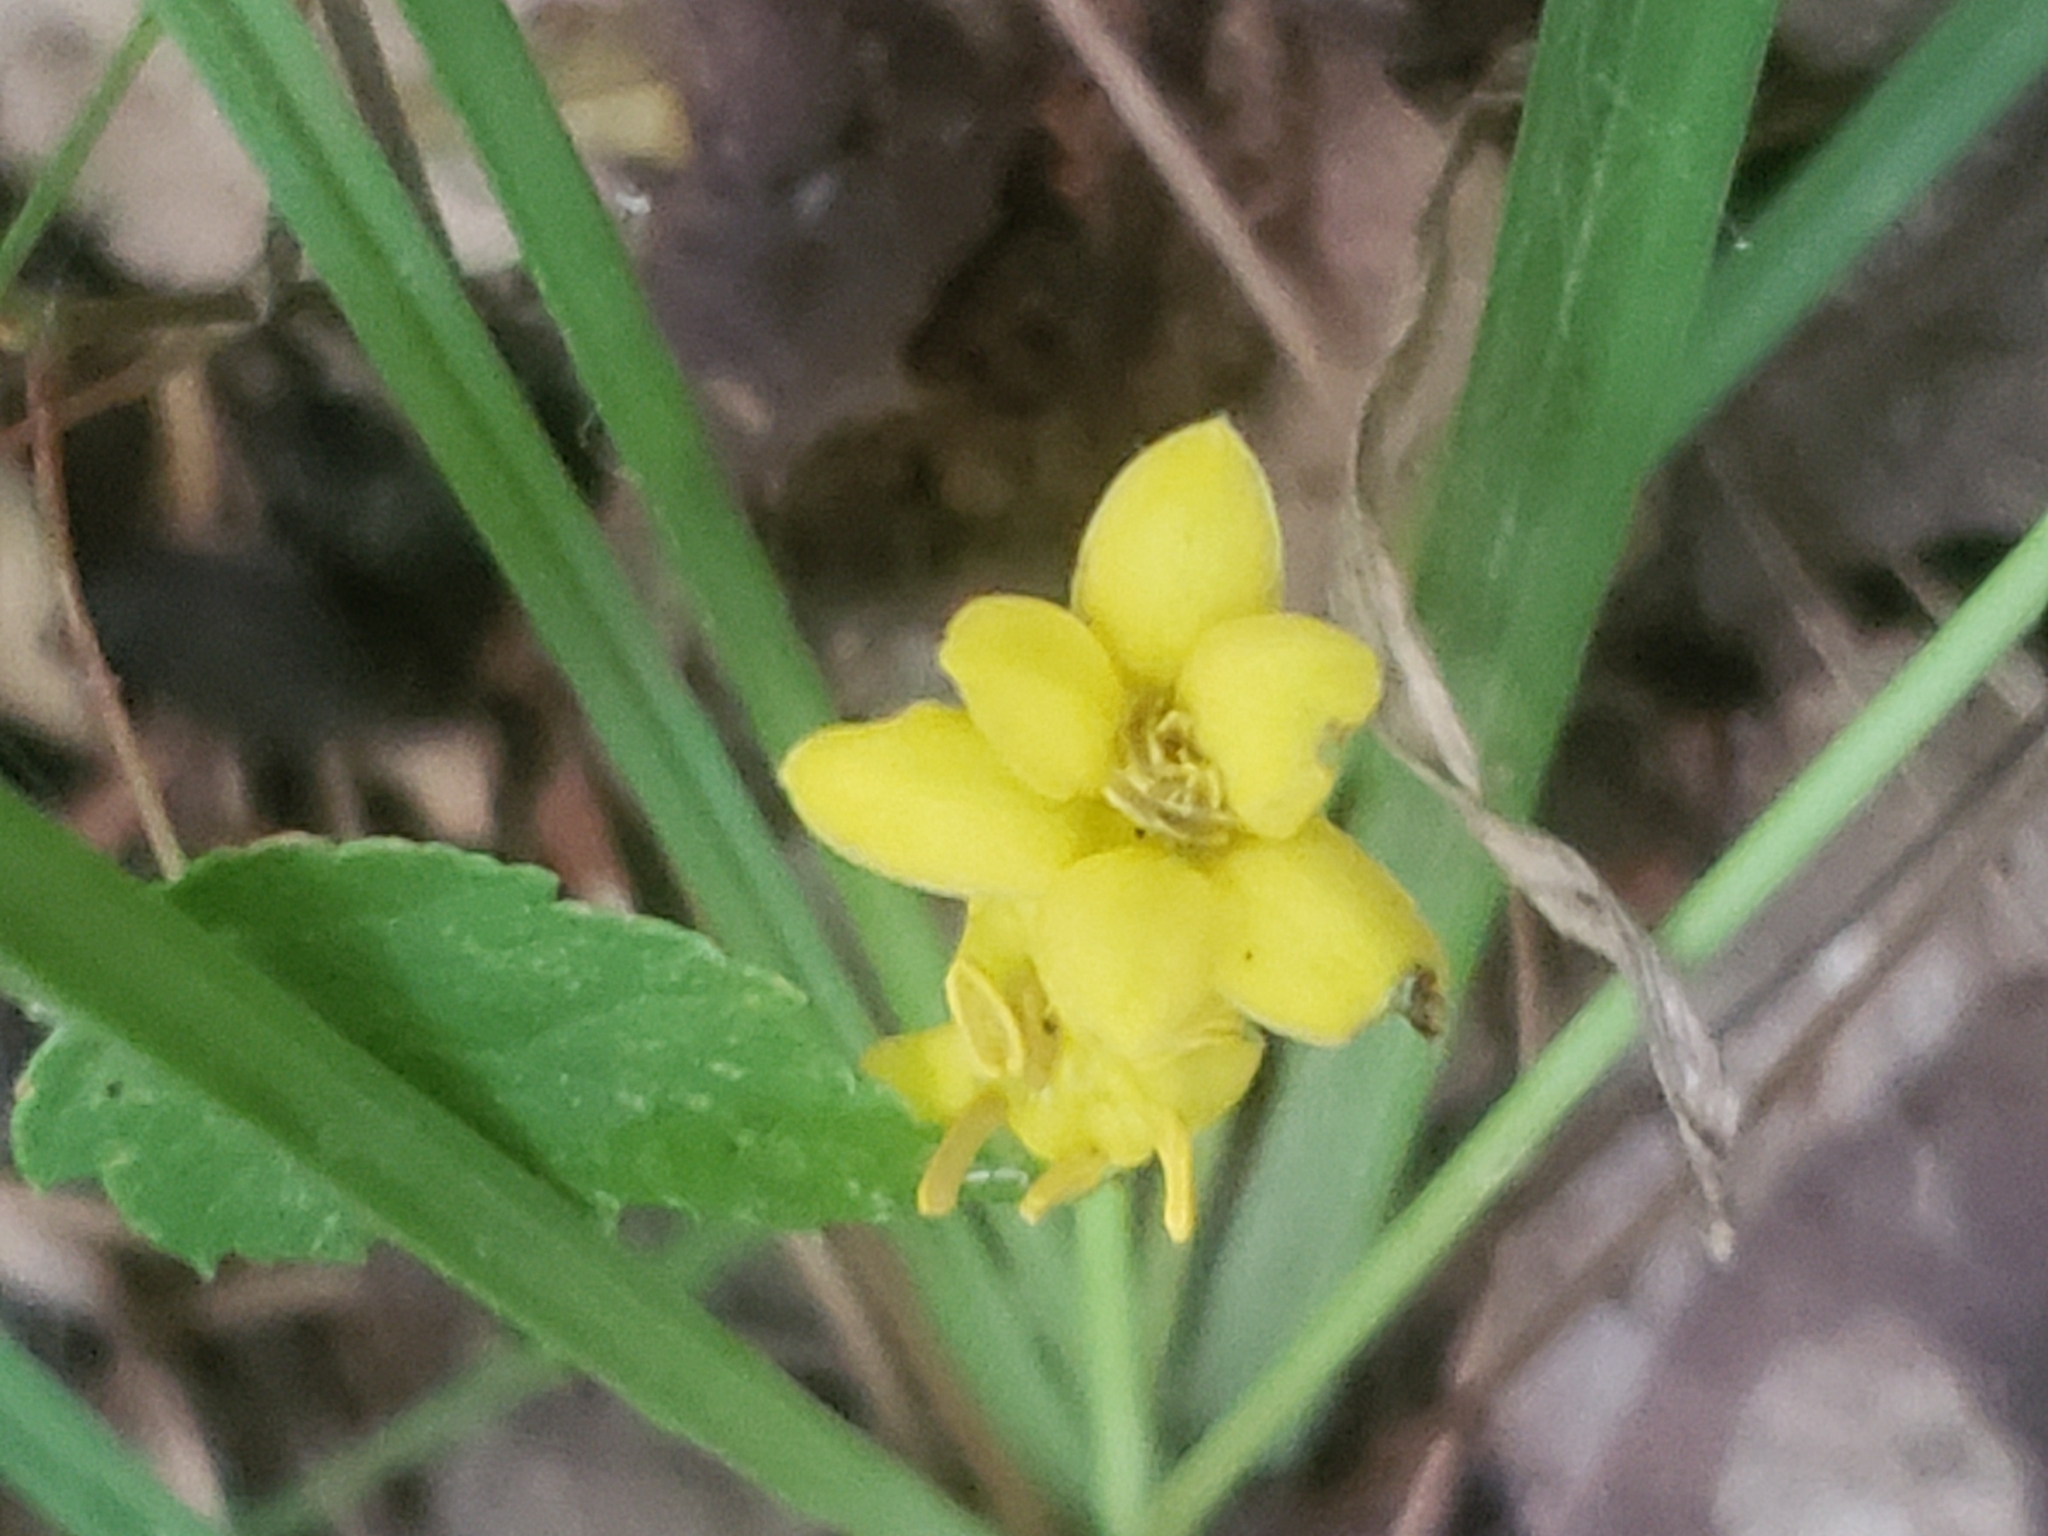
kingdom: Plantae
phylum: Tracheophyta
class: Liliopsida
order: Asparagales
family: Hypoxidaceae
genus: Hypoxis
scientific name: Hypoxis hirsuta
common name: Common goldstar
